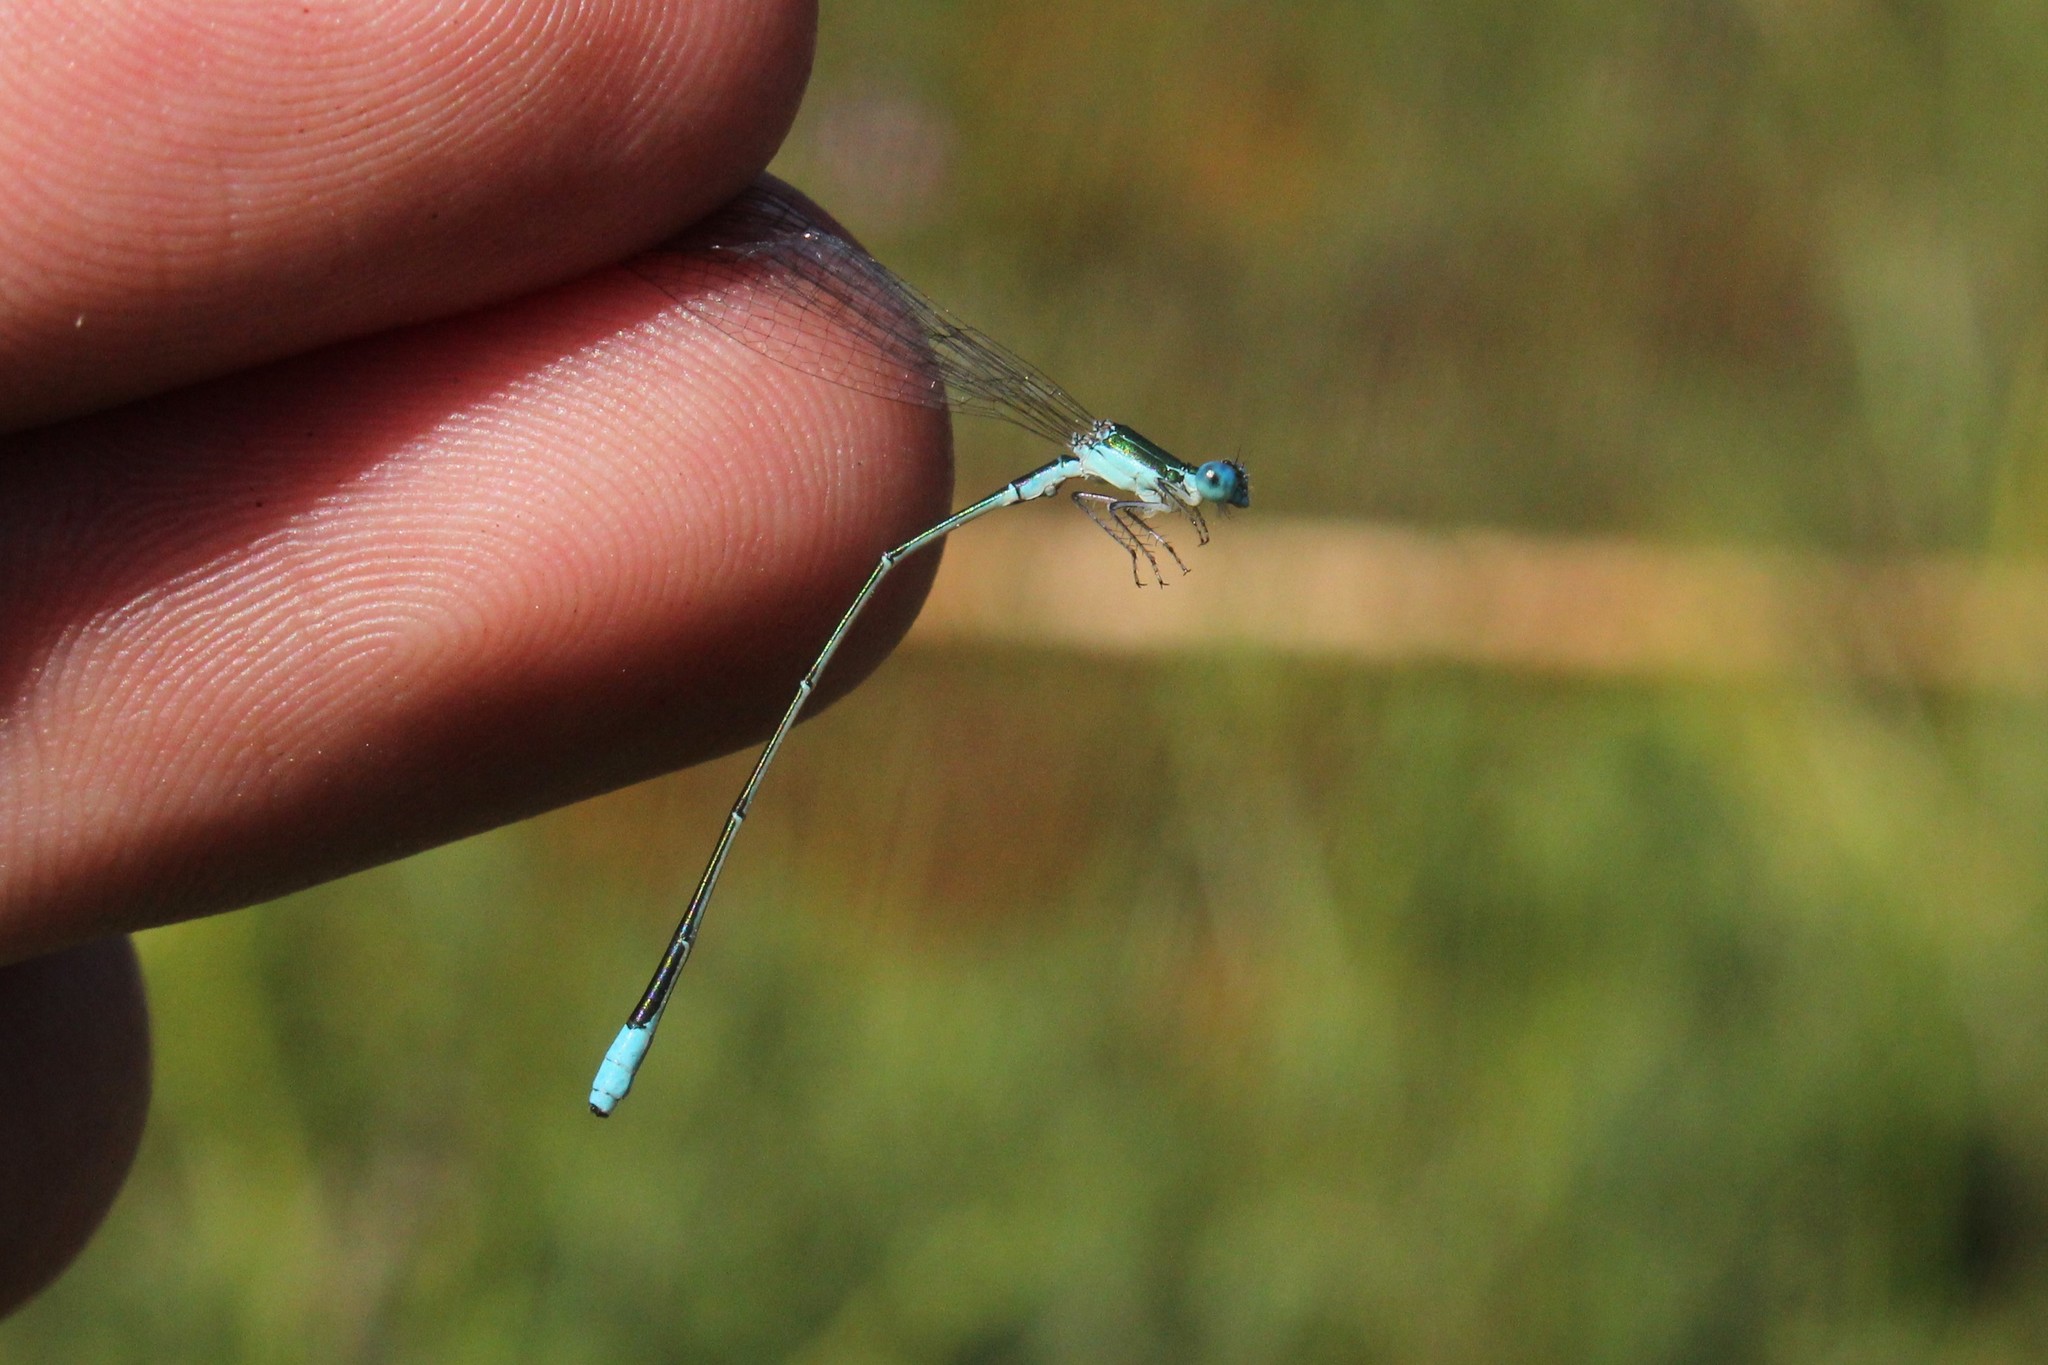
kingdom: Animalia
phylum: Arthropoda
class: Insecta
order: Odonata
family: Coenagrionidae
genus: Nehalennia
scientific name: Nehalennia gracilis
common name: Sphagnum sprite
